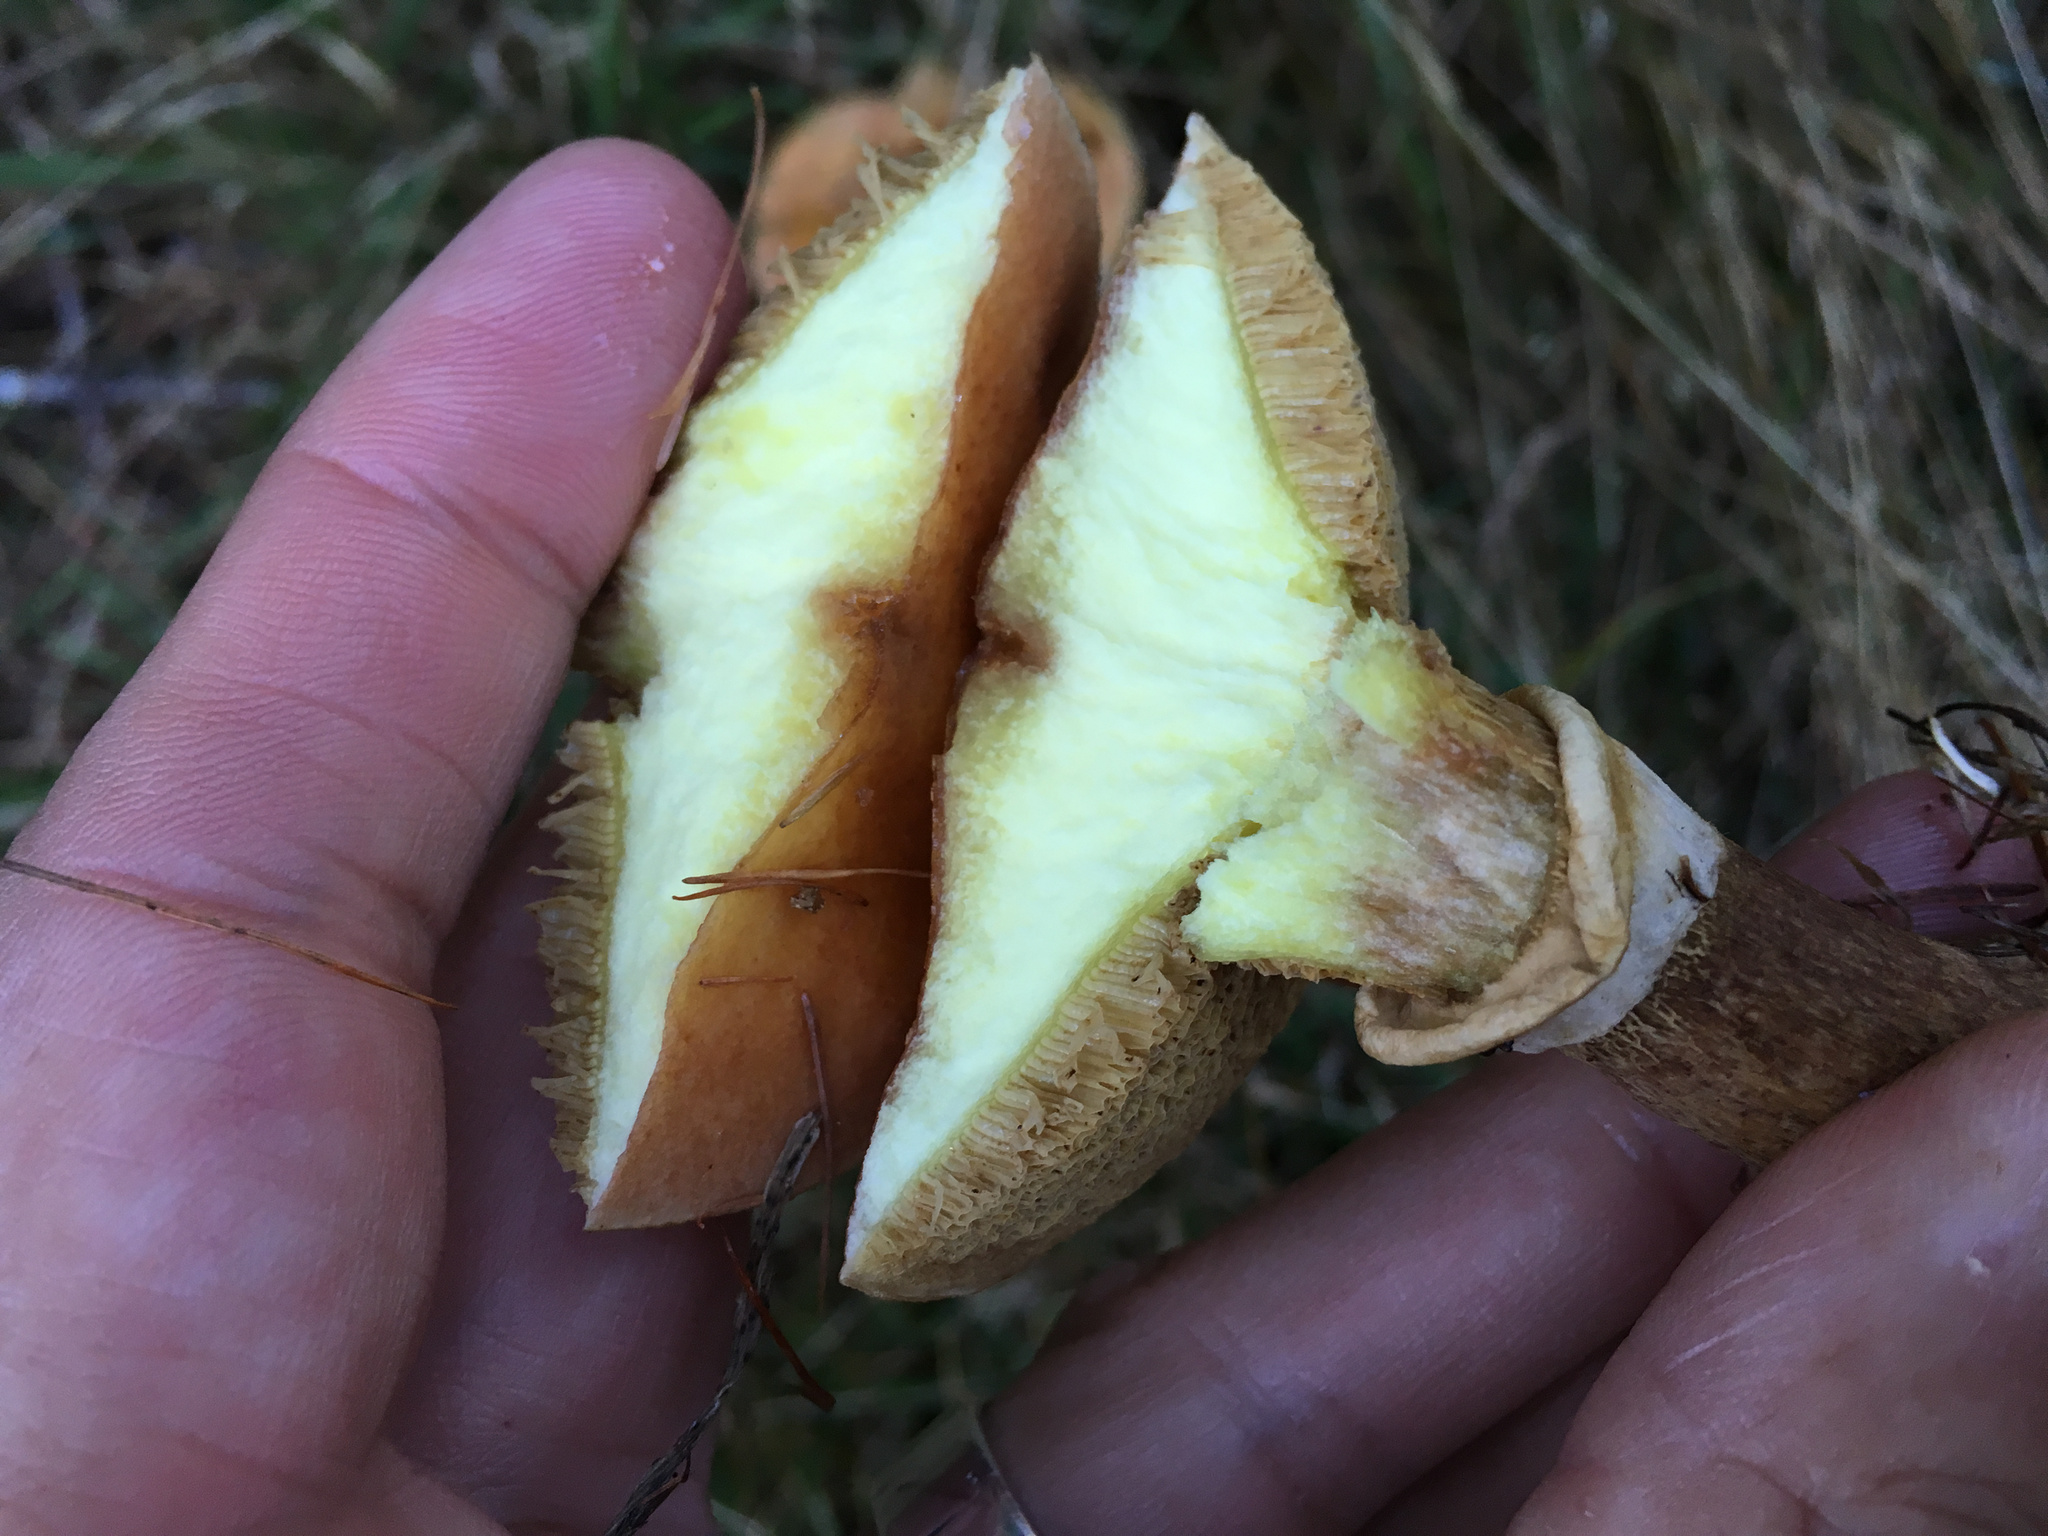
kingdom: Fungi
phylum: Basidiomycota
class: Agaricomycetes
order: Boletales
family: Suillaceae
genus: Suillus
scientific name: Suillus grevillei
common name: Larch bolete
